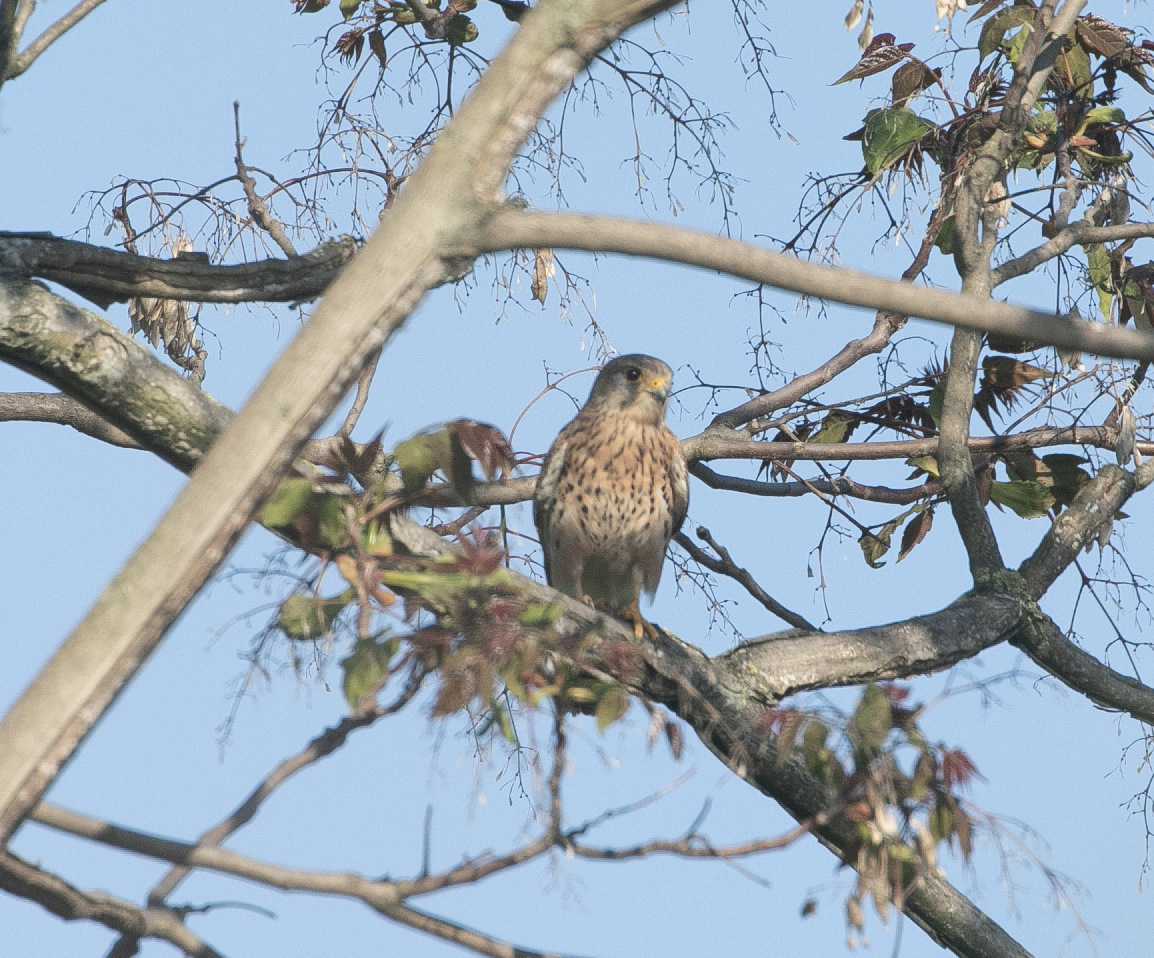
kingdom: Animalia
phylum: Chordata
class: Aves
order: Falconiformes
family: Falconidae
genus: Falco
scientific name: Falco tinnunculus
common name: Common kestrel
